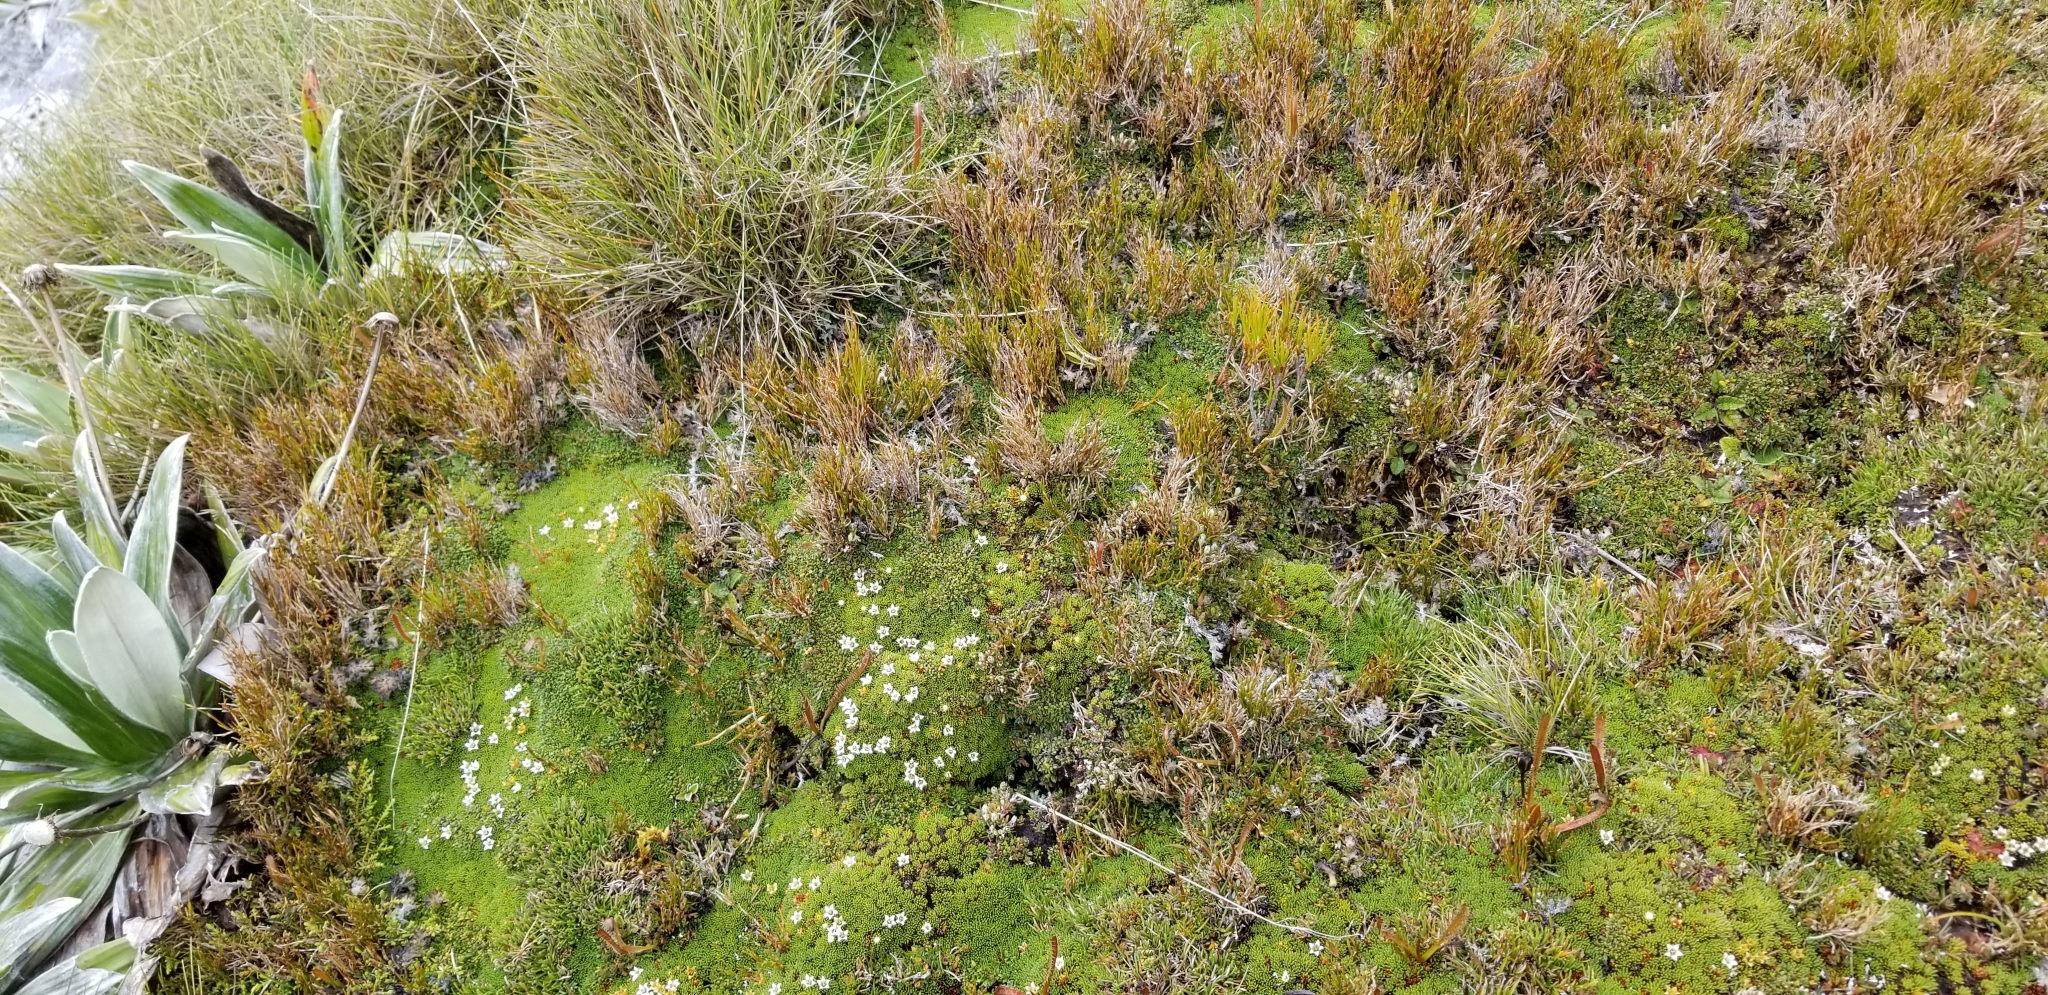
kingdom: Animalia
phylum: Arthropoda
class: Insecta
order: Orthoptera
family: Acrididae
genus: Sigaus
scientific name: Sigaus
